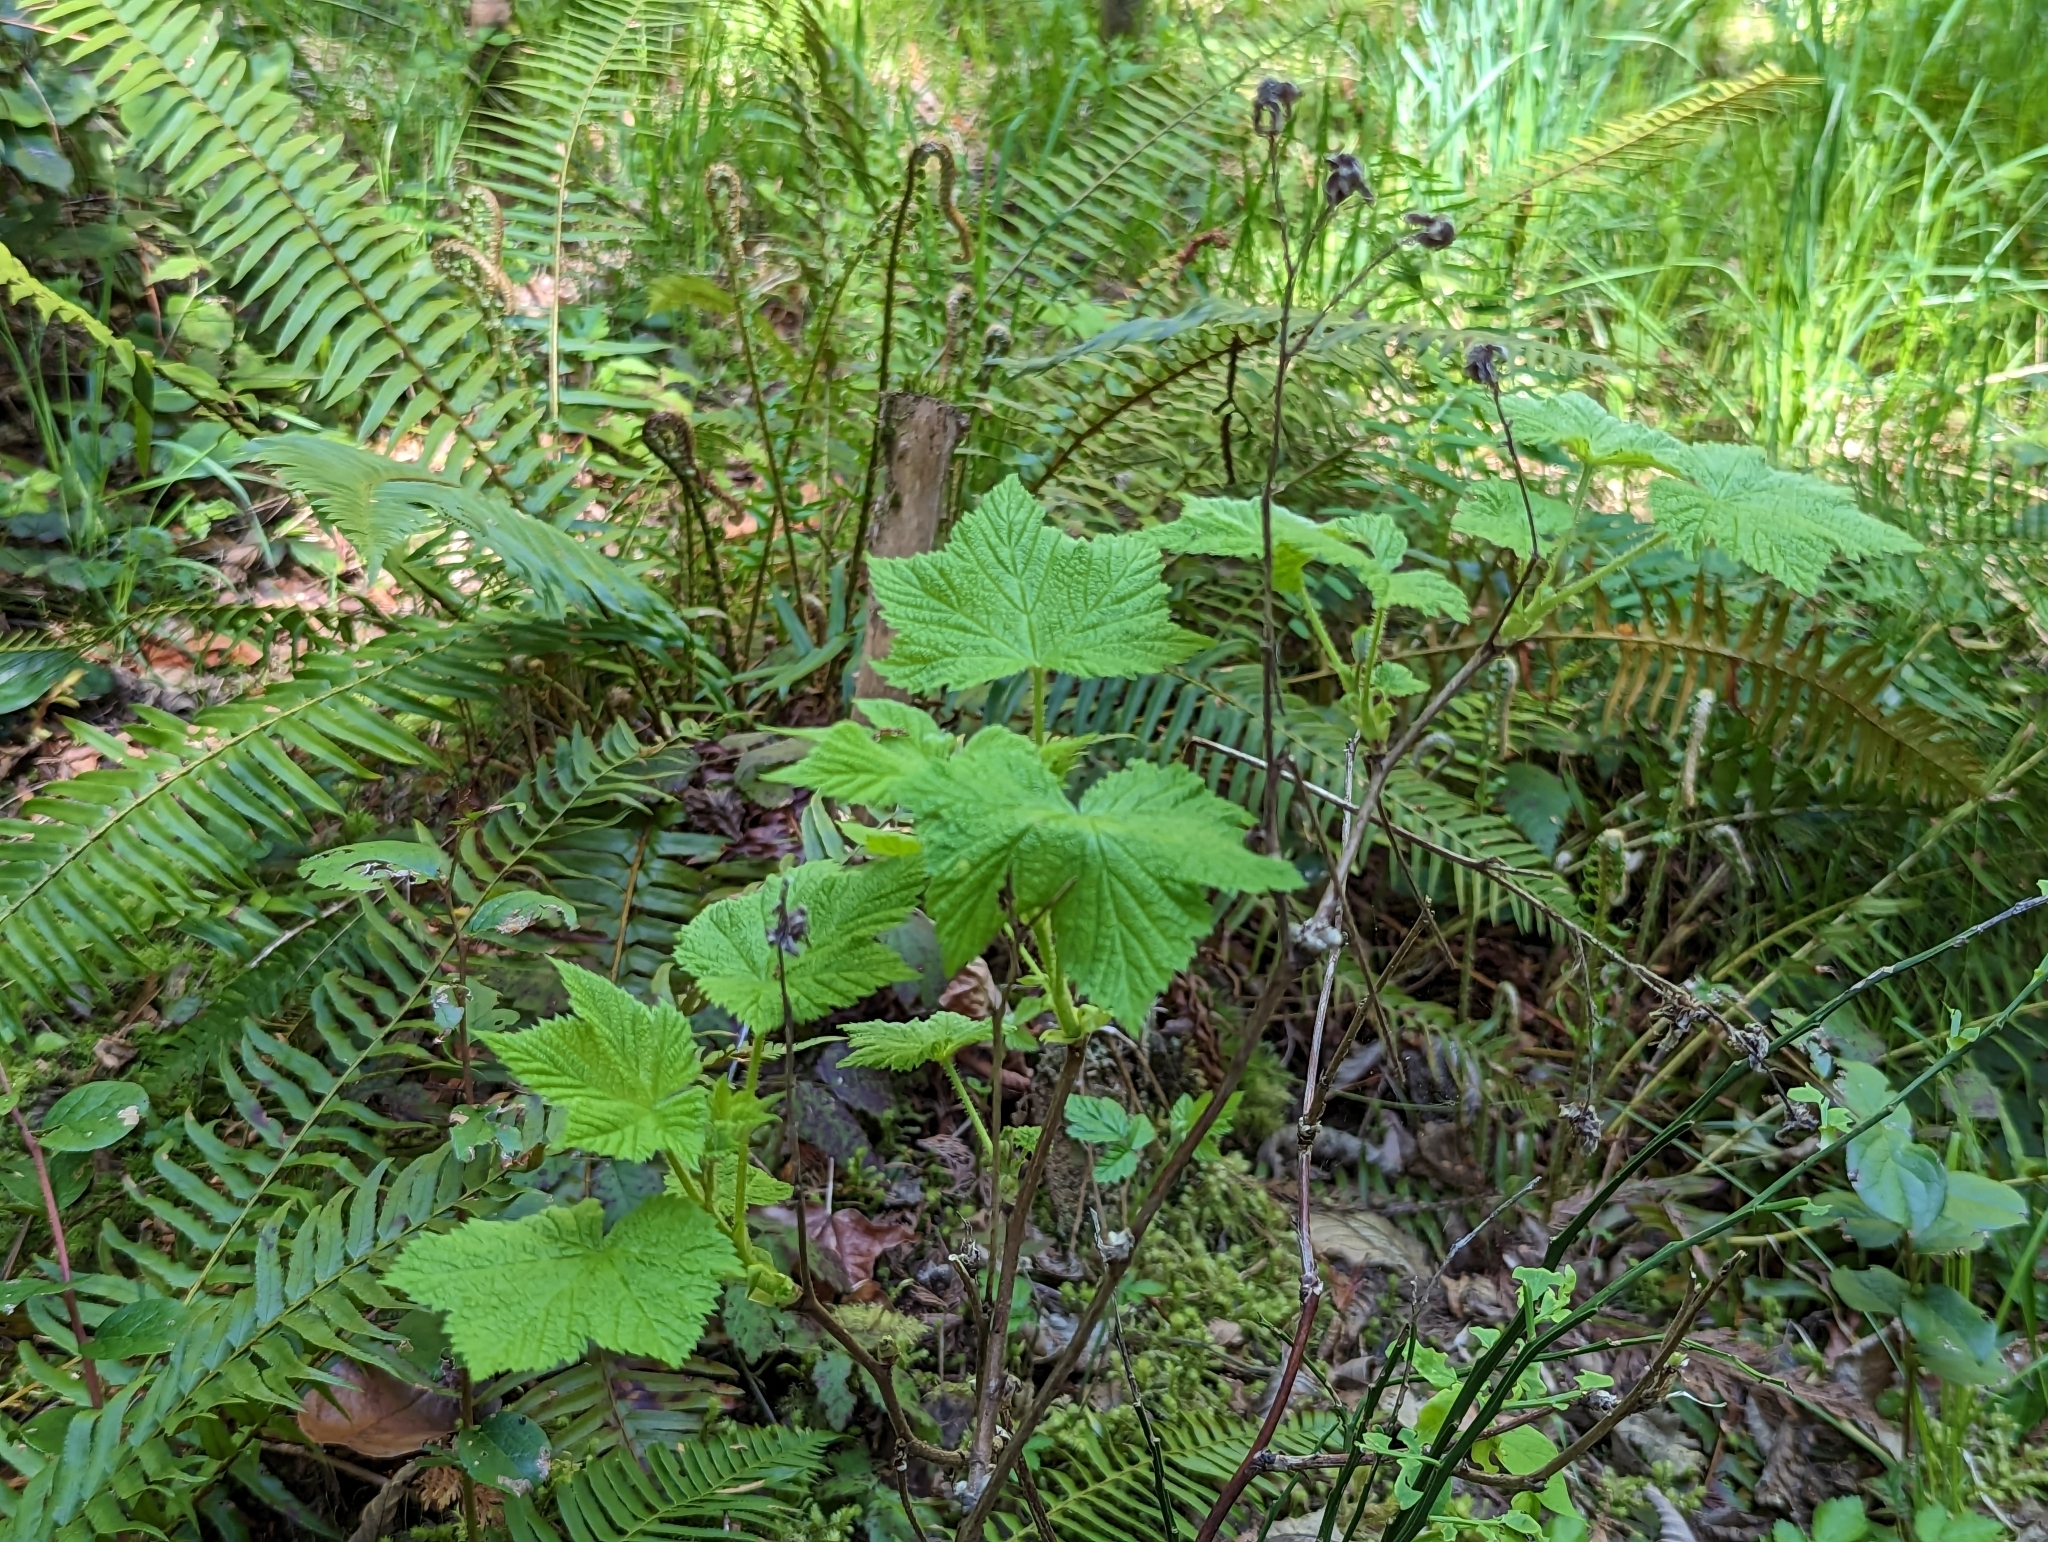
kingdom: Plantae
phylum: Tracheophyta
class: Magnoliopsida
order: Rosales
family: Rosaceae
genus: Rubus
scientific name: Rubus parviflorus
